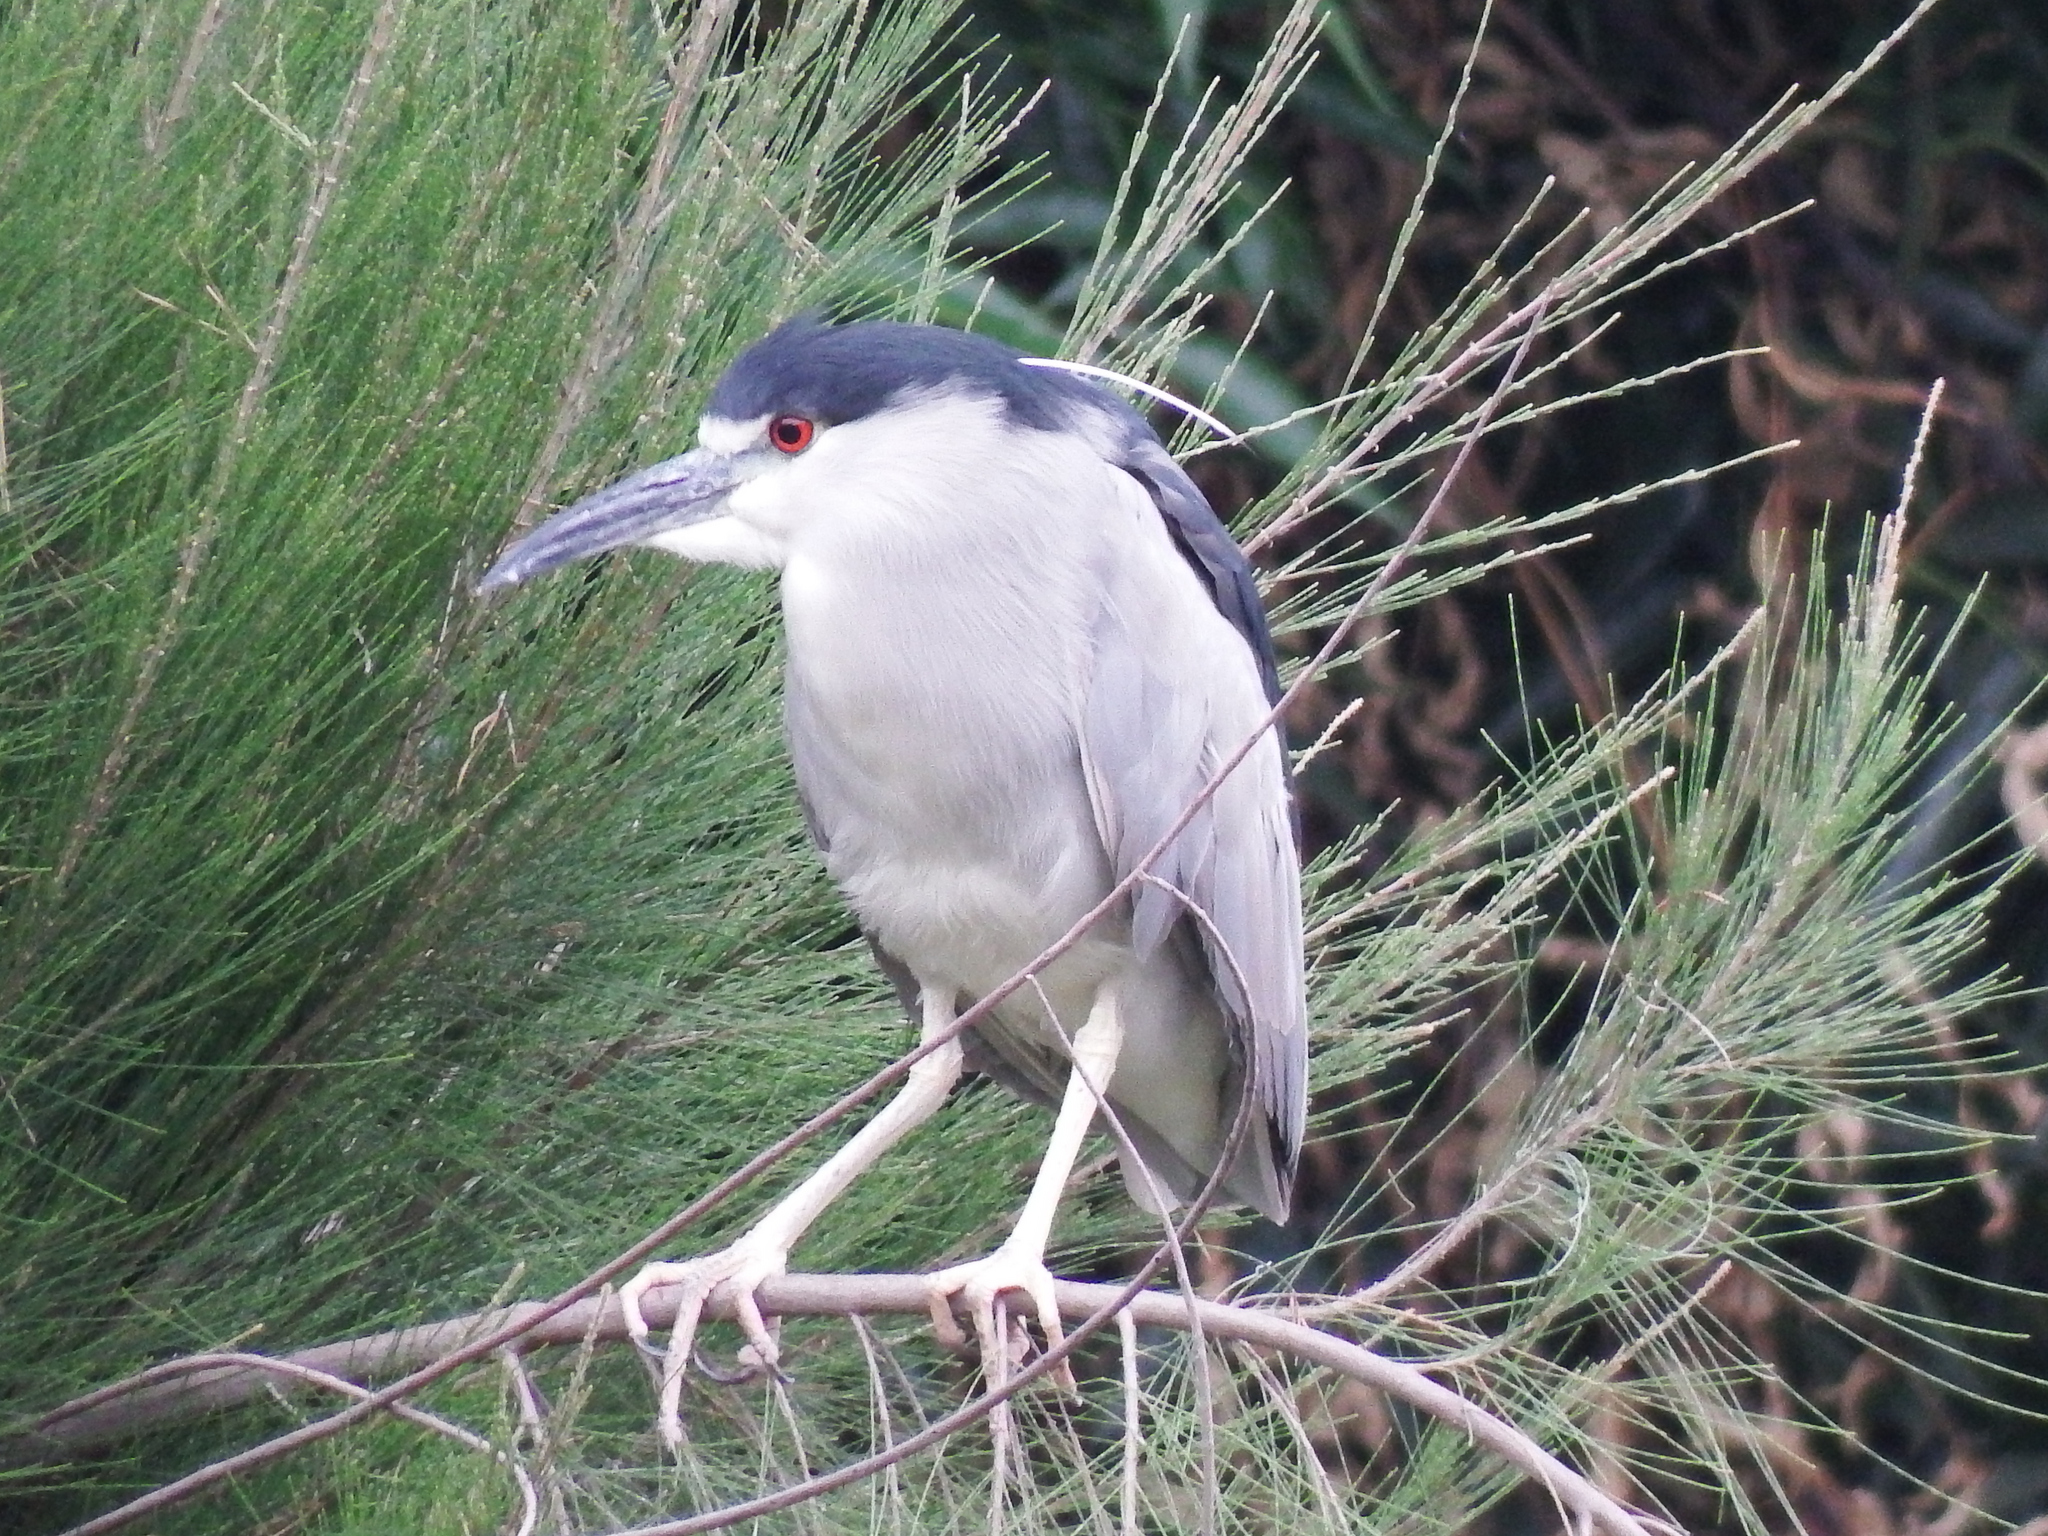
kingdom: Animalia
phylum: Chordata
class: Aves
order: Pelecaniformes
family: Ardeidae
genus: Nycticorax
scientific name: Nycticorax nycticorax
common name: Black-crowned night heron
